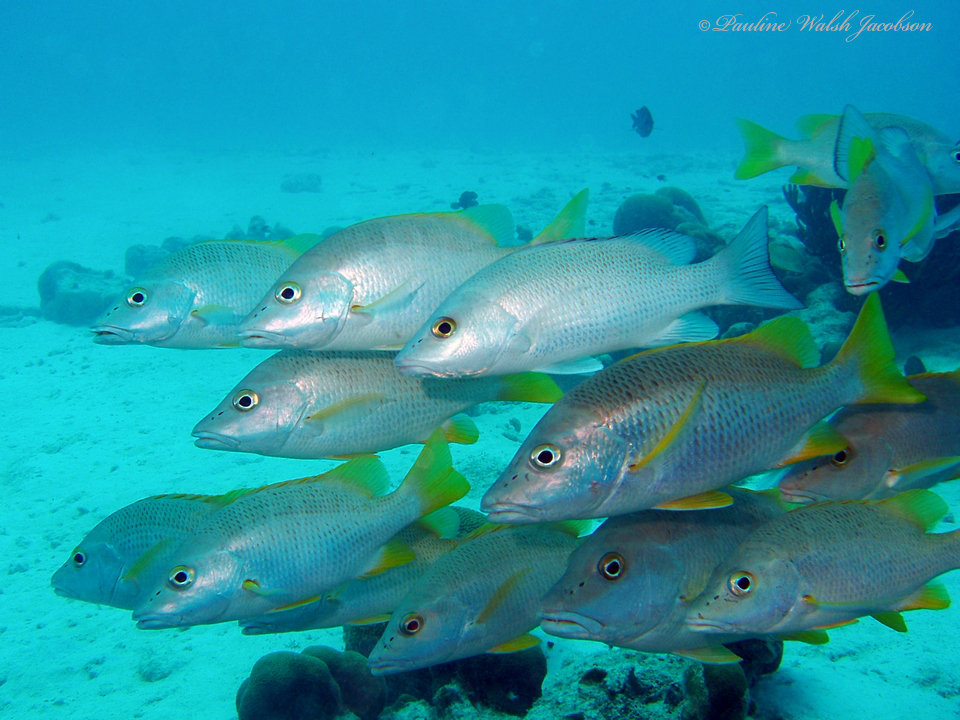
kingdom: Animalia
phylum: Chordata
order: Perciformes
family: Lutjanidae
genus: Lutjanus
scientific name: Lutjanus apodus
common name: Schoolmaster
